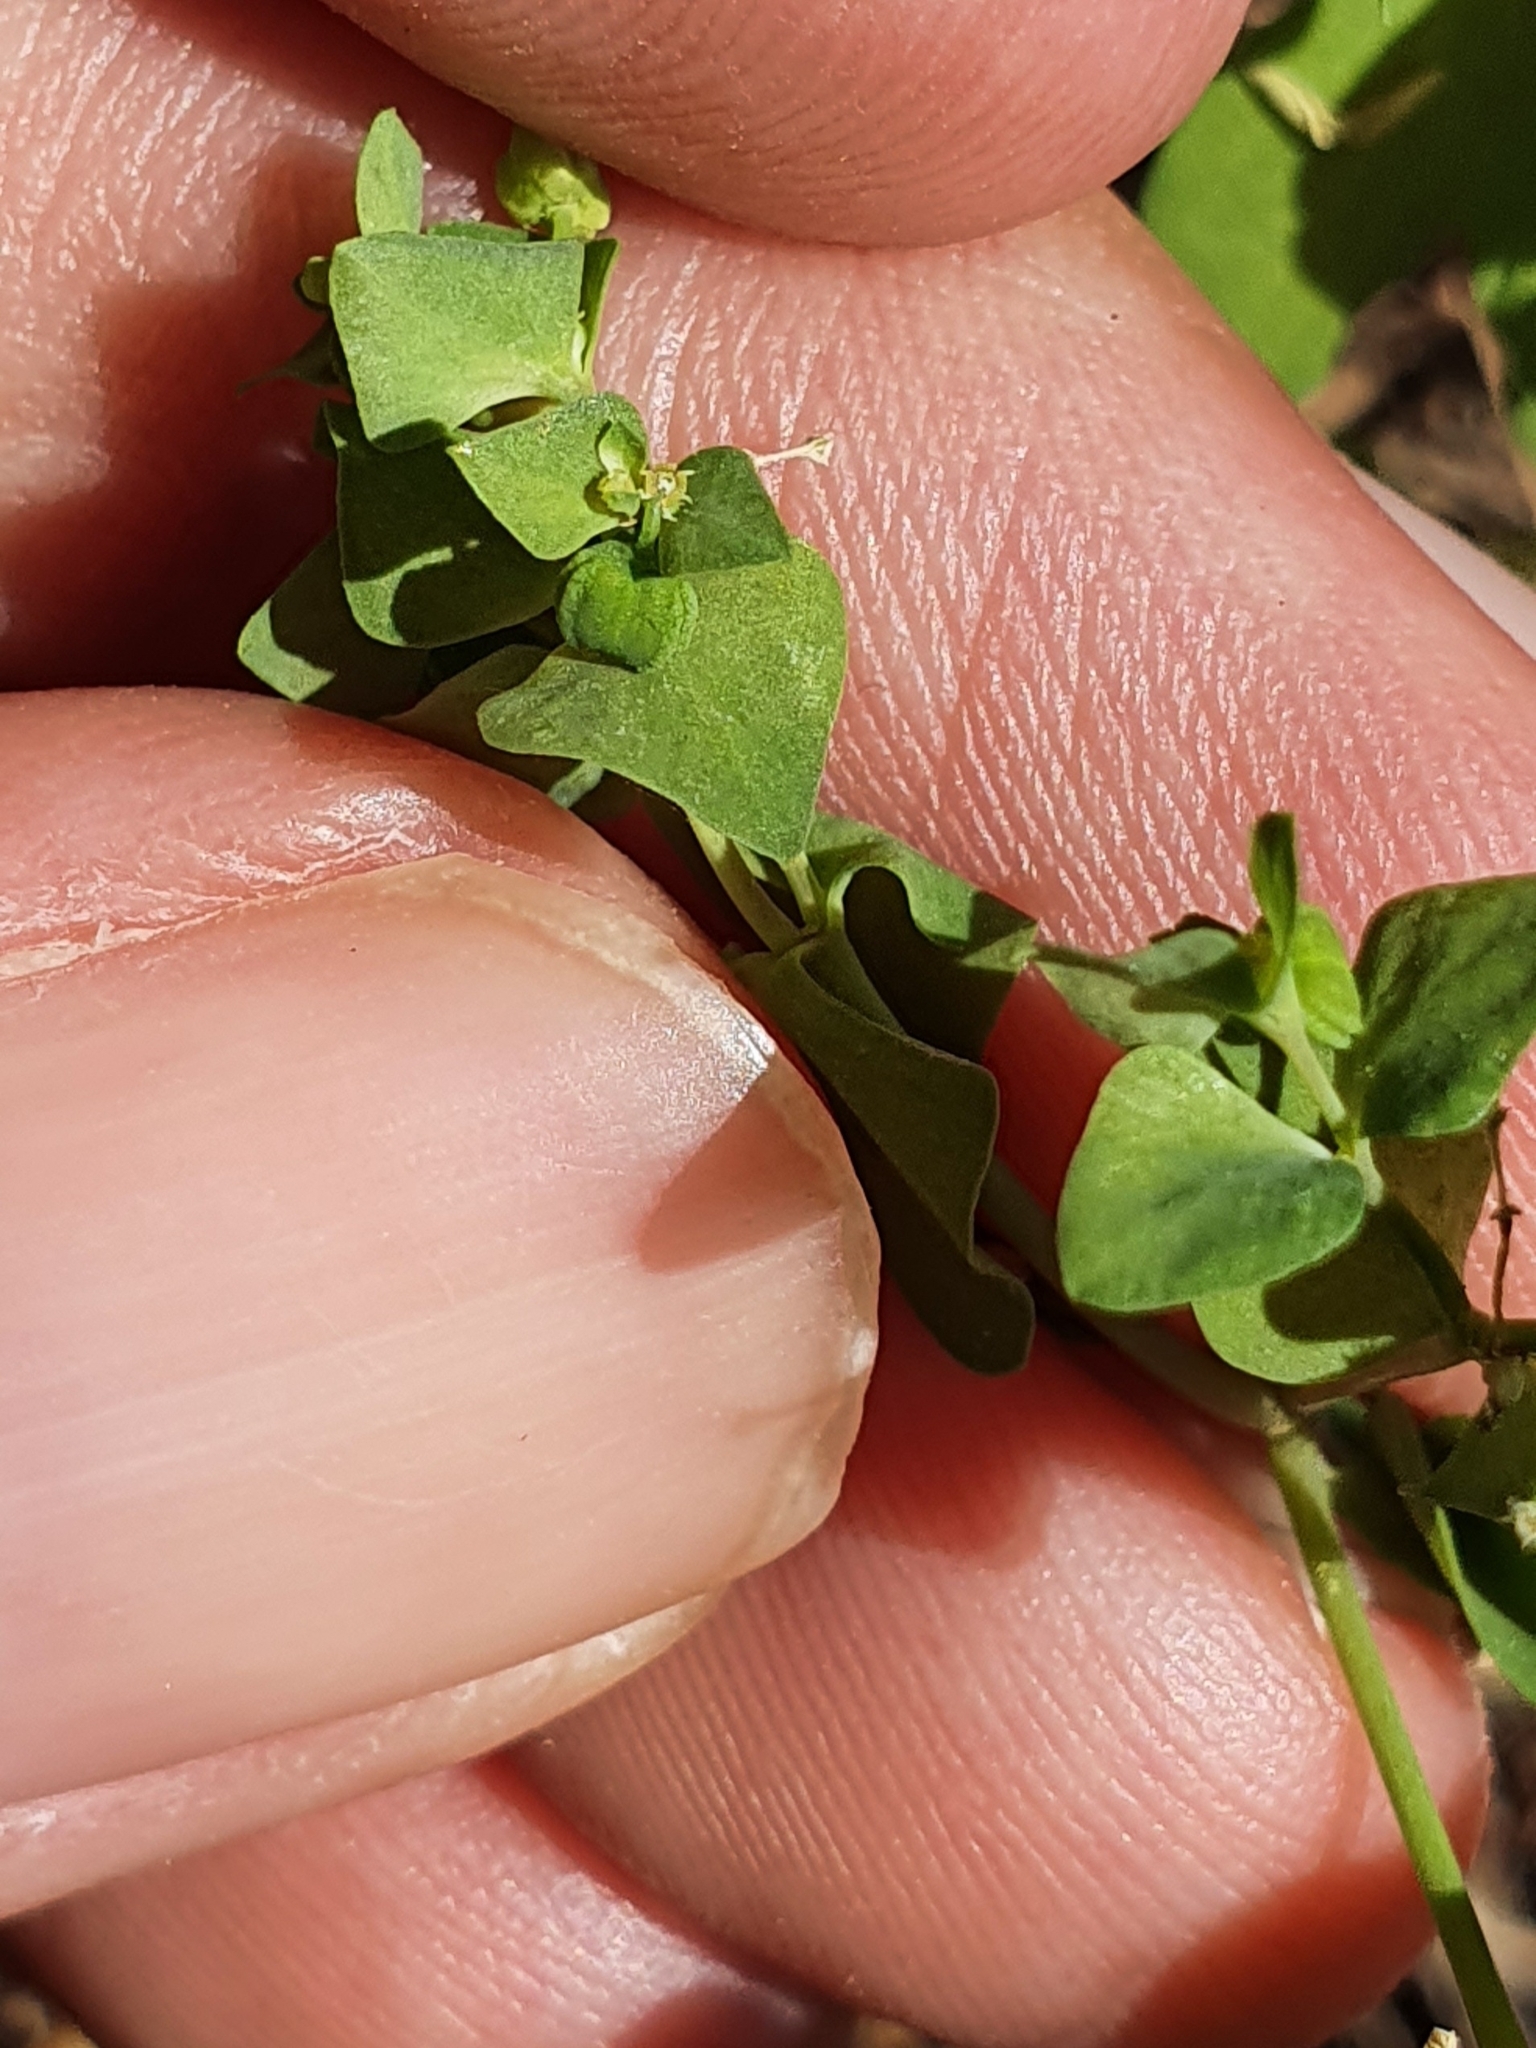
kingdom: Plantae
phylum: Tracheophyta
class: Magnoliopsida
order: Malpighiales
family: Euphorbiaceae
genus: Euphorbia
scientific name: Euphorbia peplus
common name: Petty spurge
